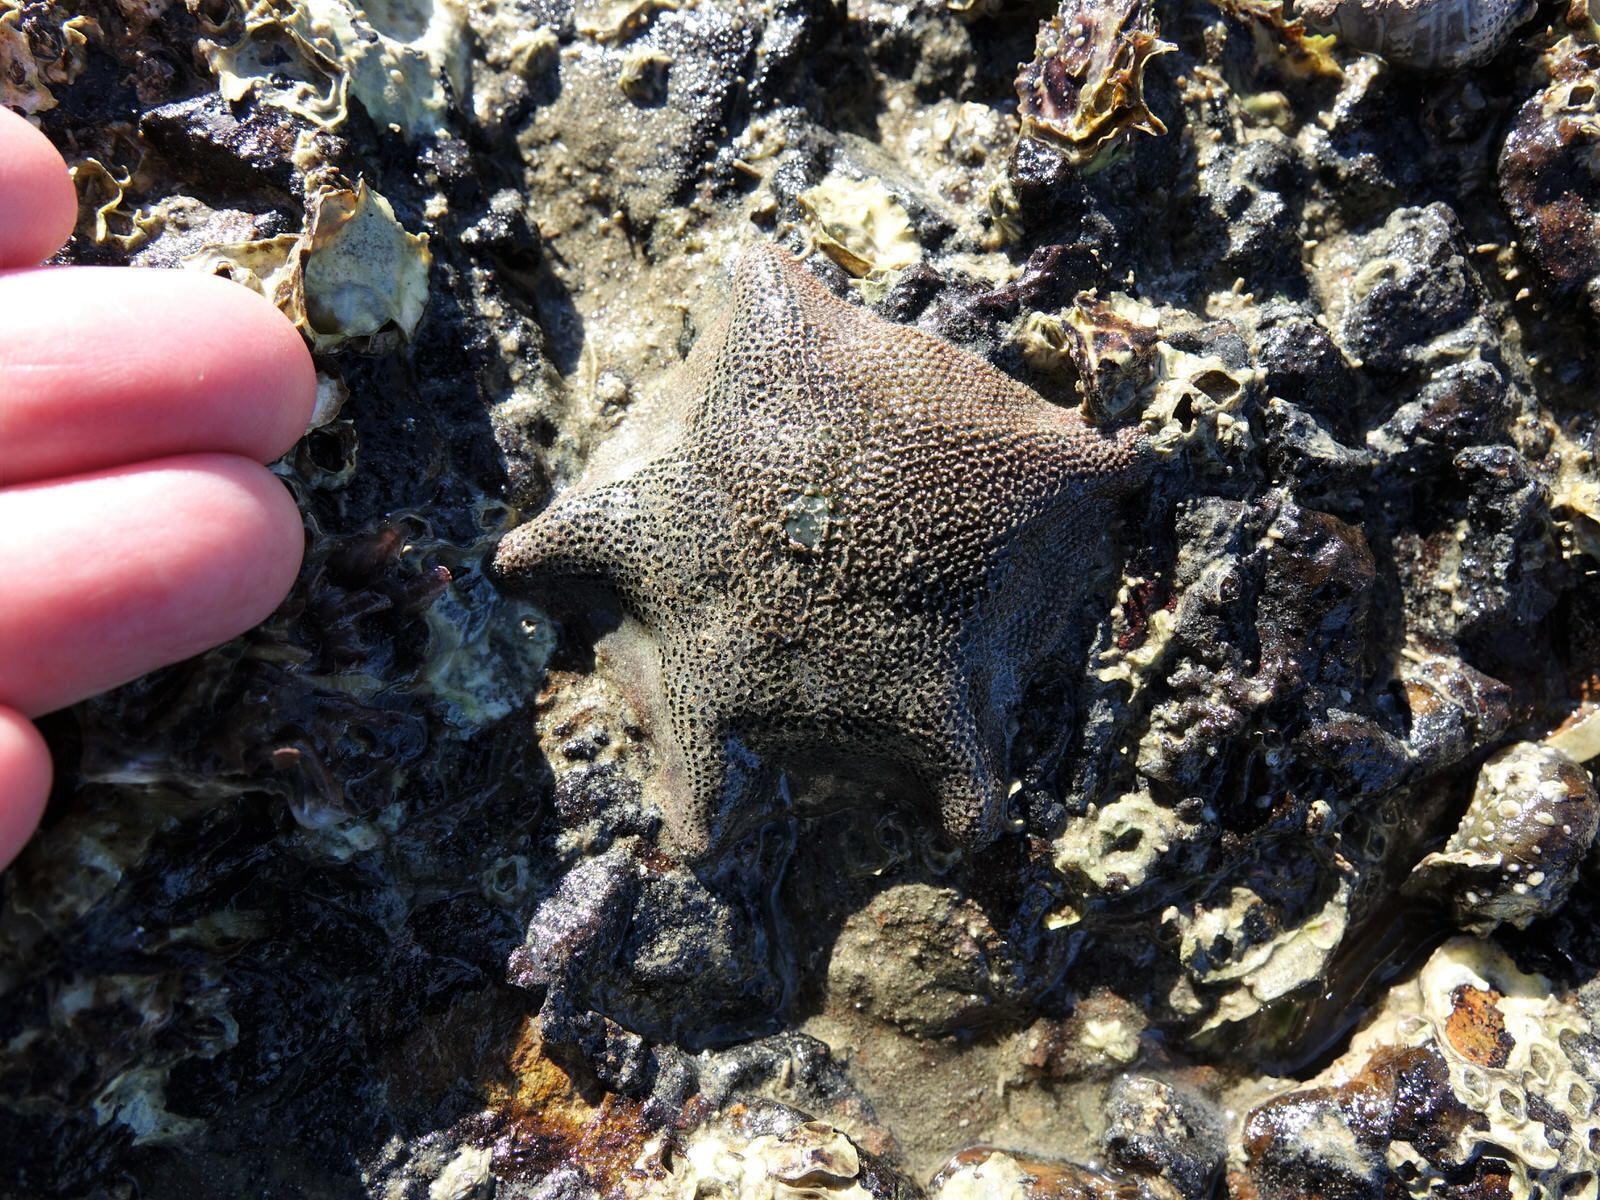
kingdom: Animalia
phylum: Echinodermata
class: Asteroidea
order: Valvatida
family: Asterinidae
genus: Patiriella
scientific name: Patiriella regularis
